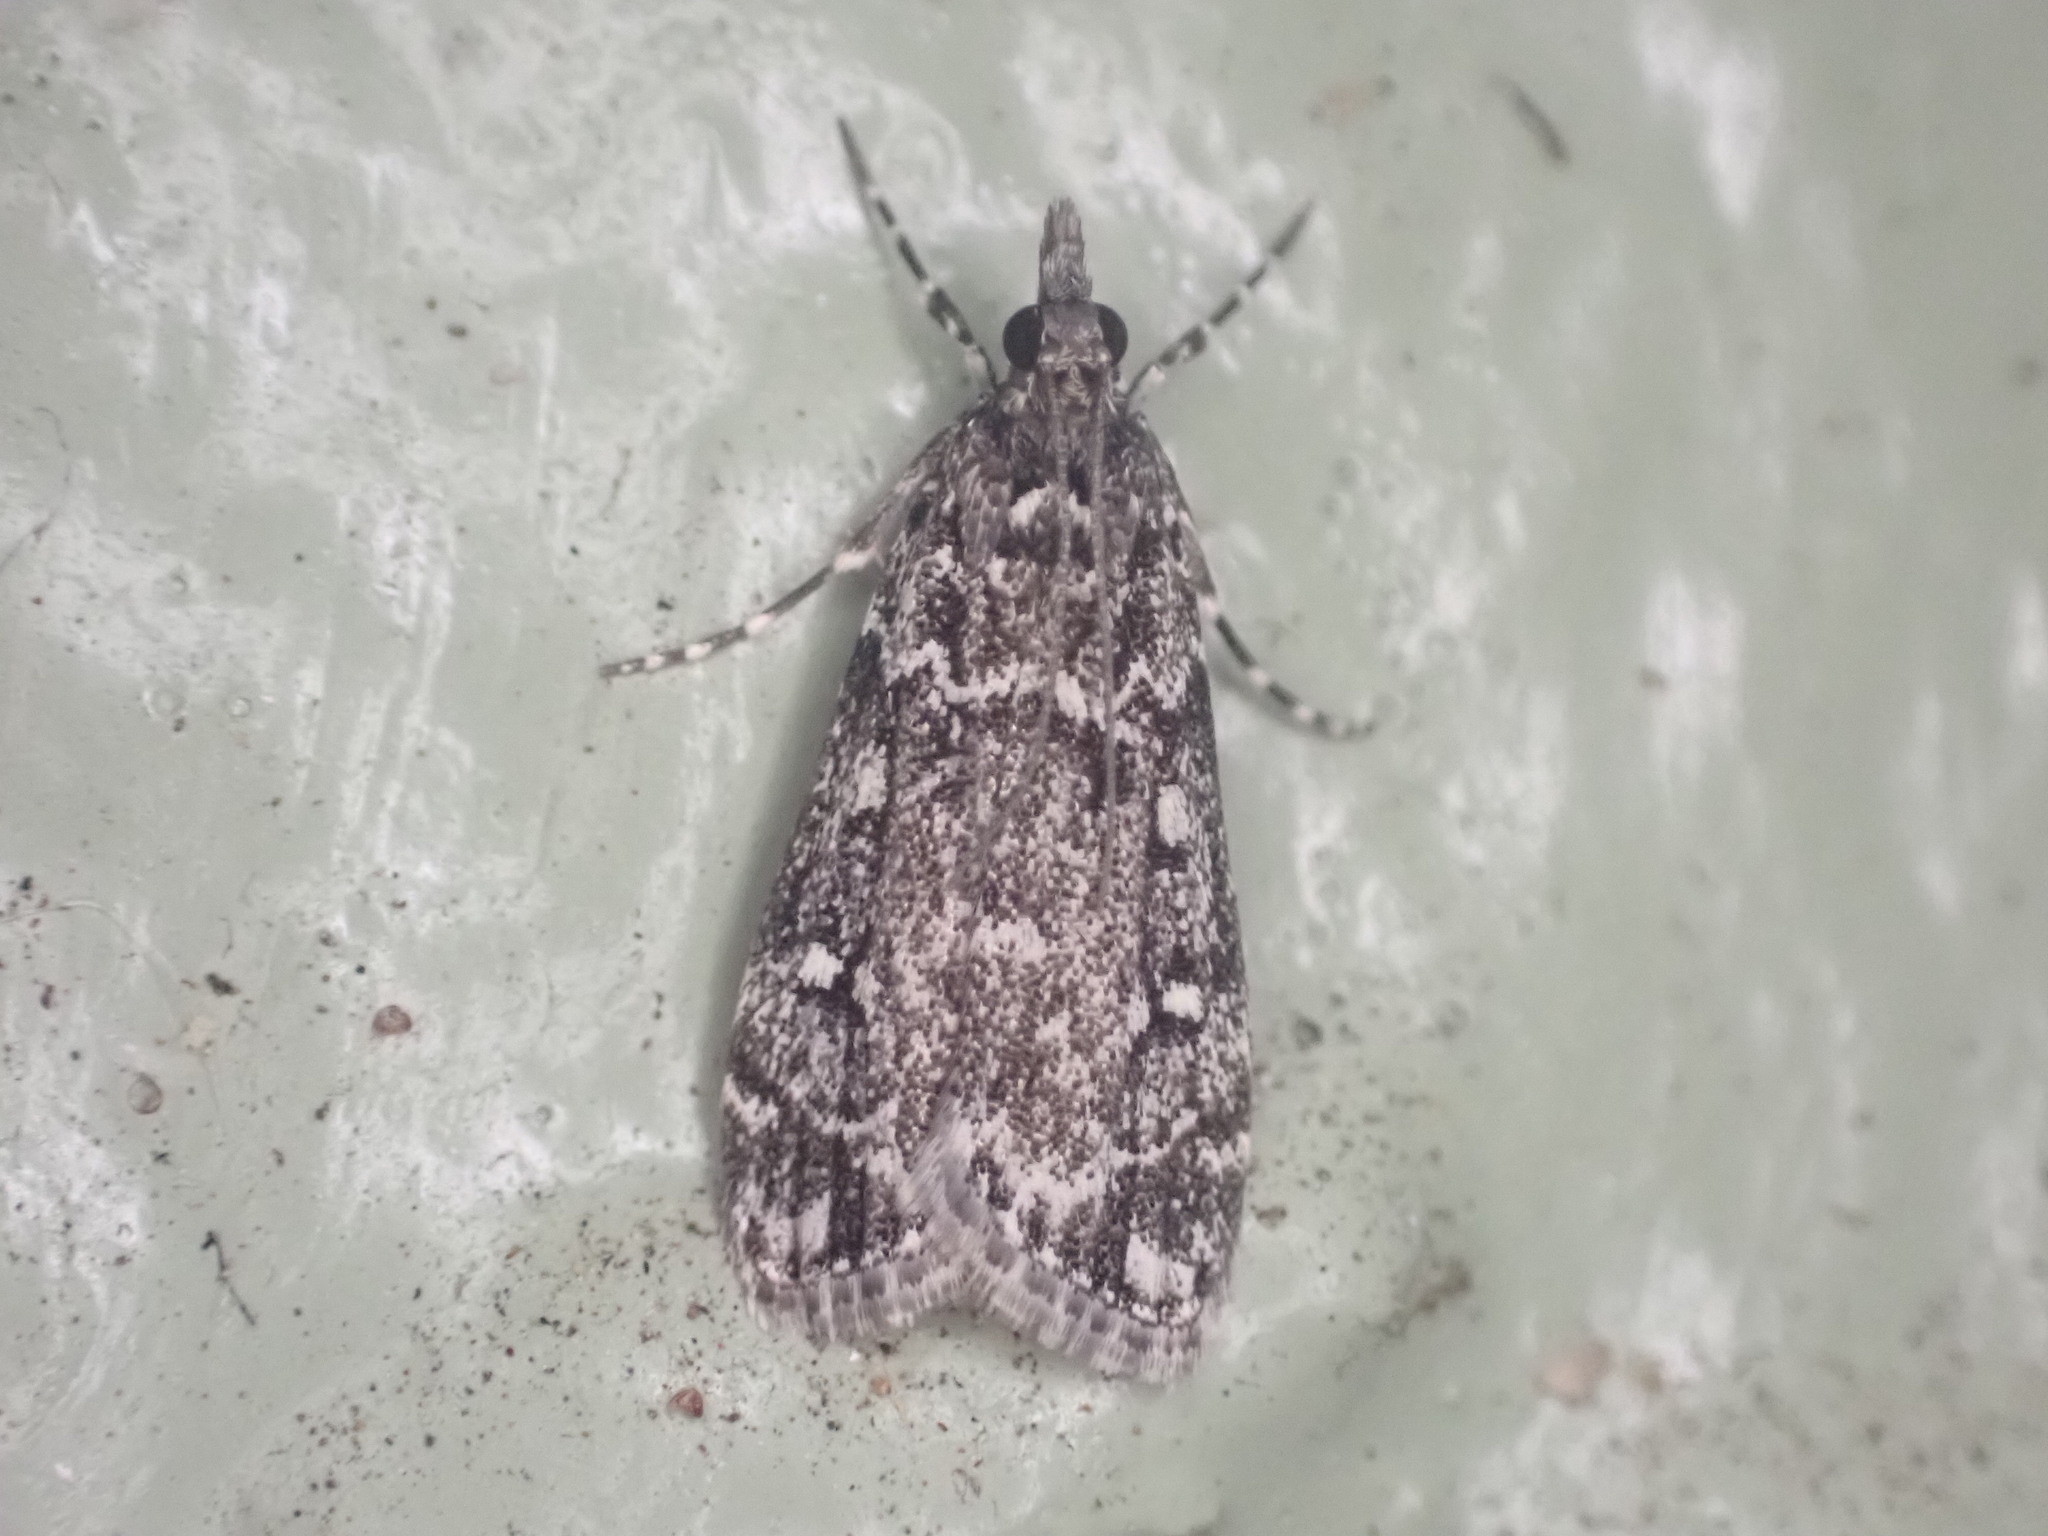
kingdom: Animalia
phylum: Arthropoda
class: Insecta
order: Lepidoptera
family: Crambidae
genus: Eudonia
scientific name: Eudonia philerga
